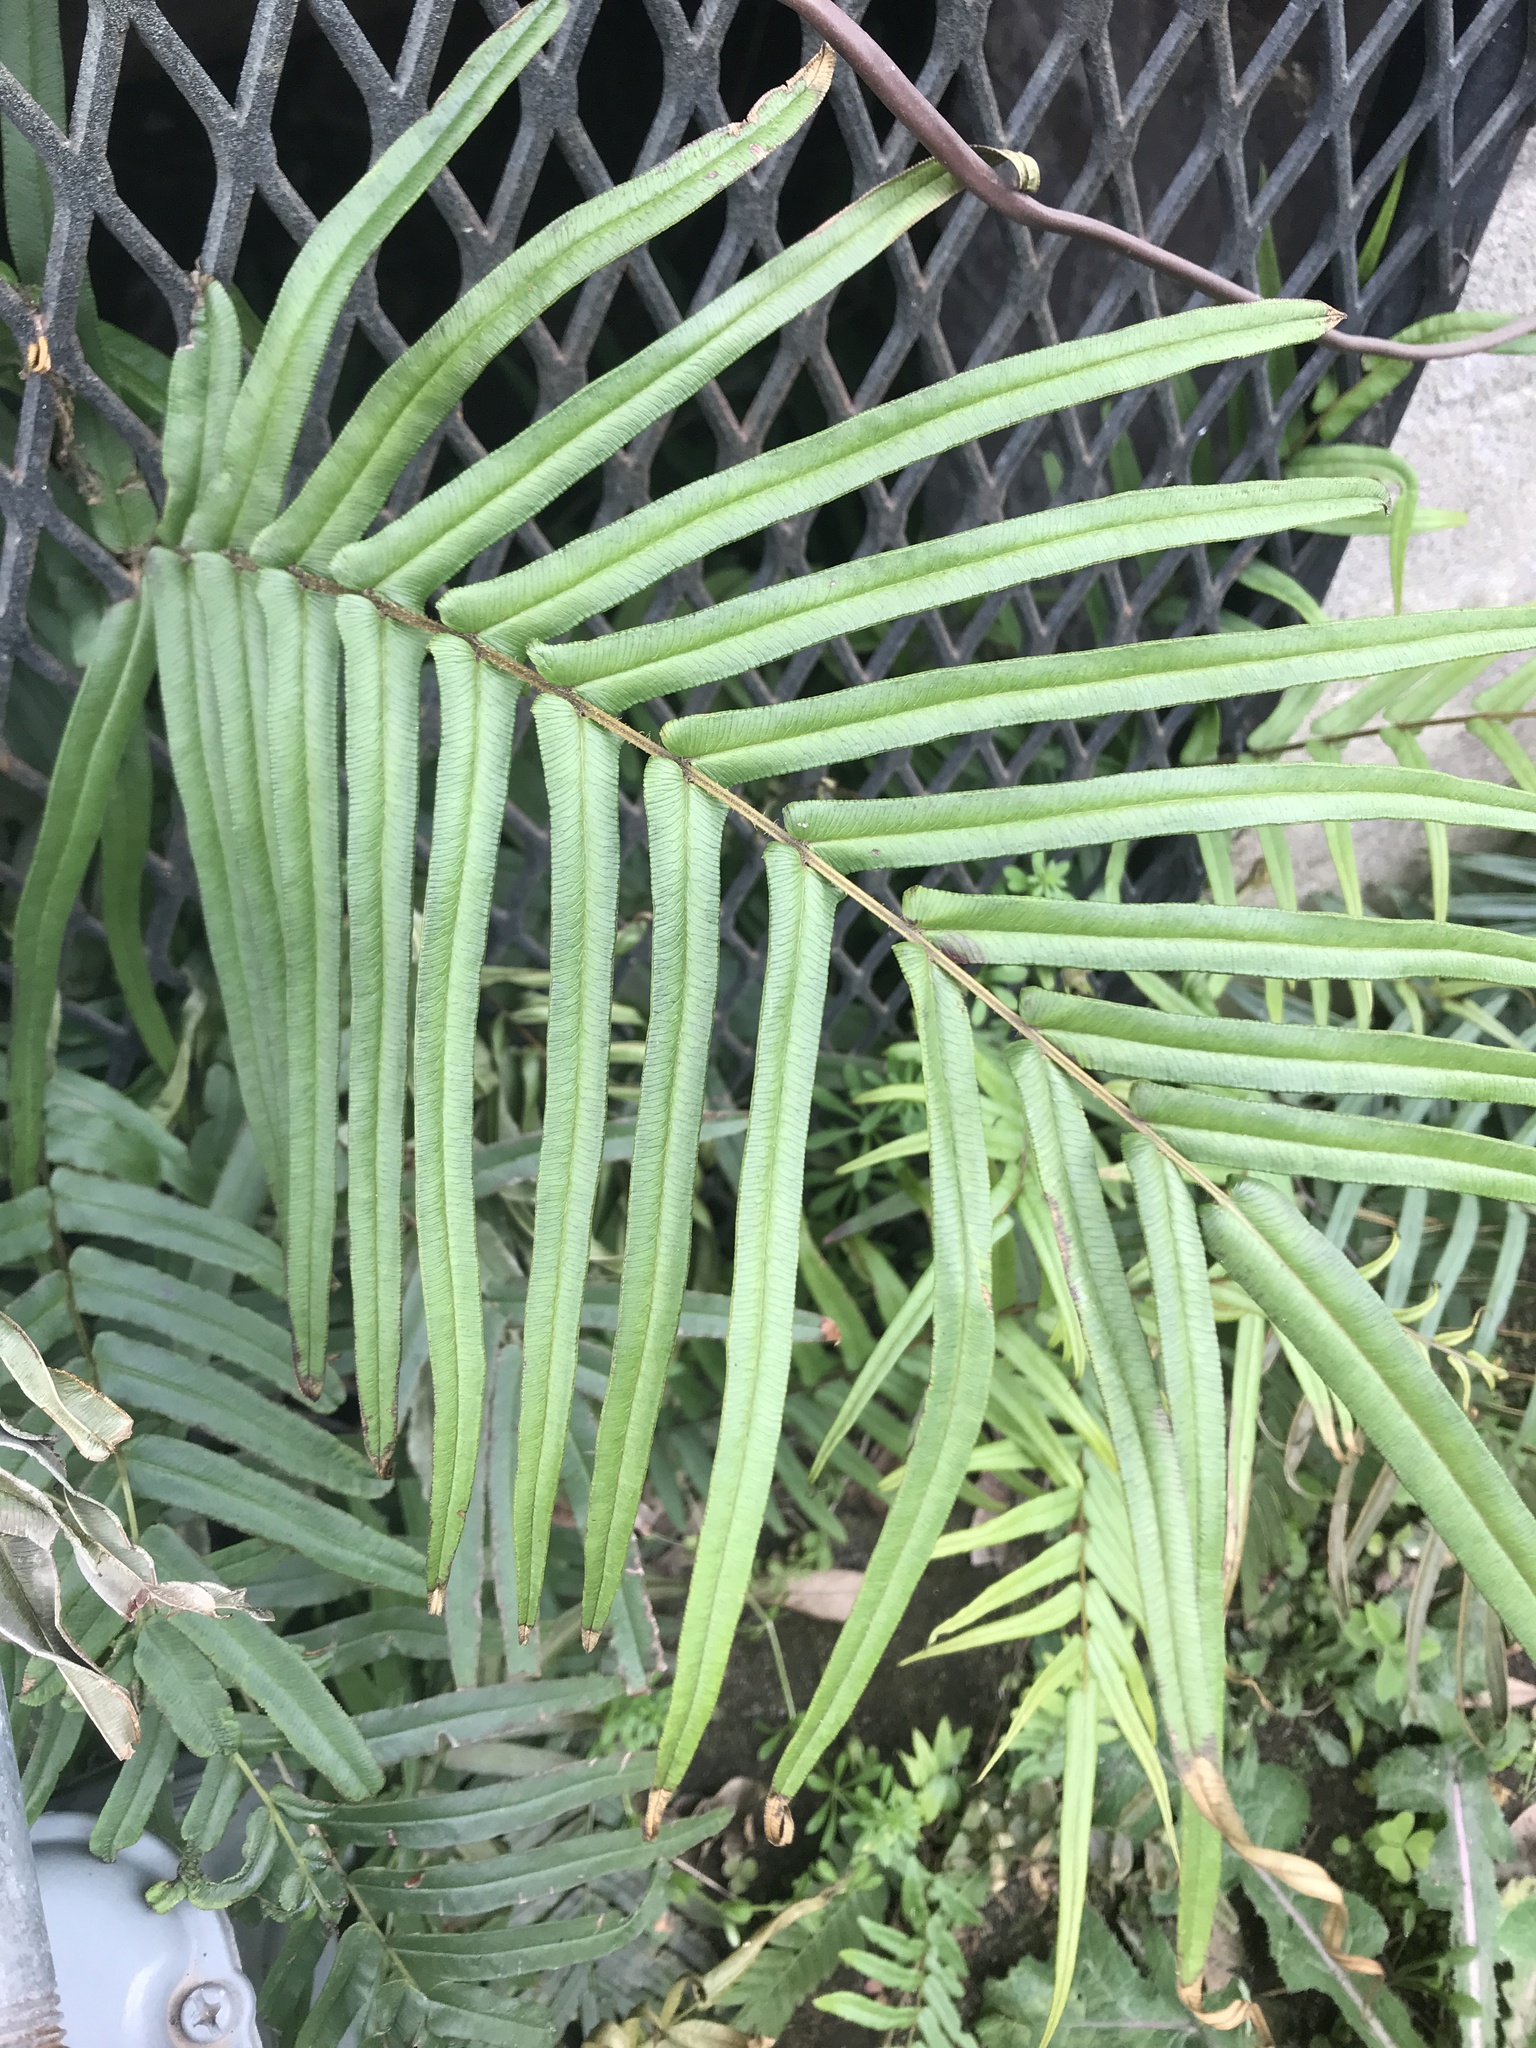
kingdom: Plantae
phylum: Tracheophyta
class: Polypodiopsida
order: Polypodiales
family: Pteridaceae
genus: Pteris
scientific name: Pteris vittata
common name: Ladder brake
